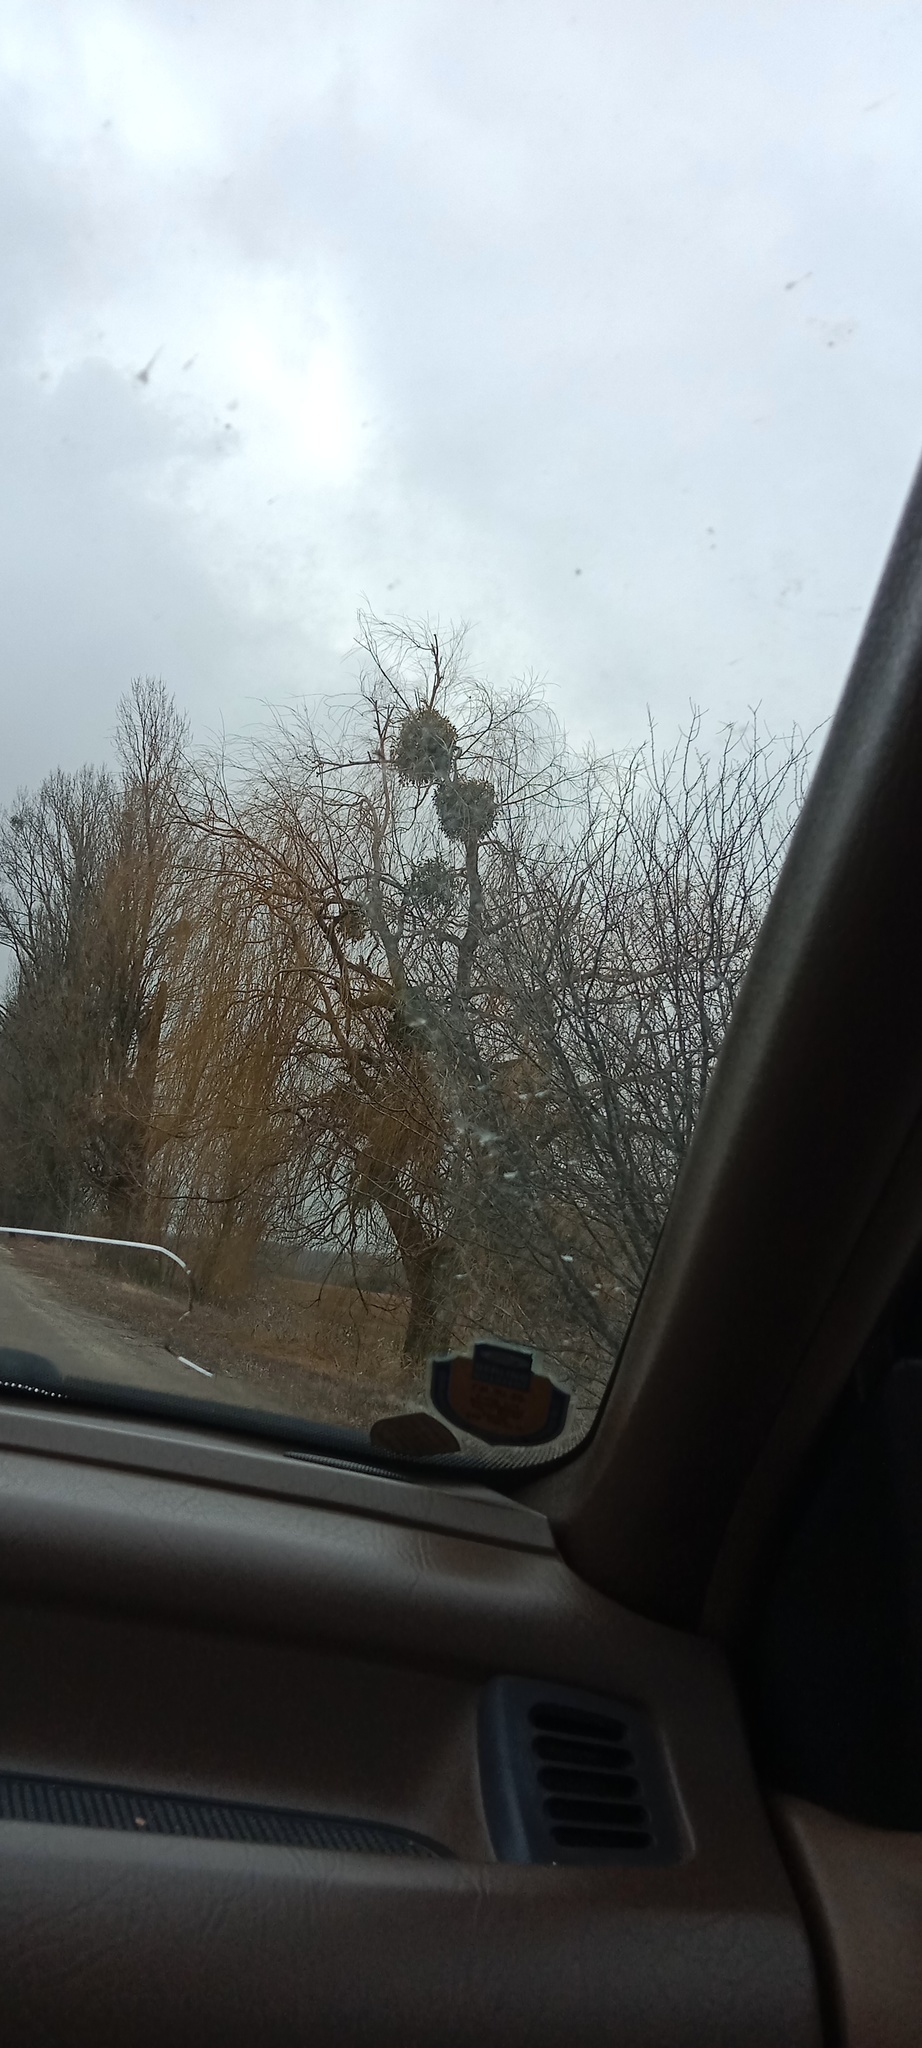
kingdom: Plantae
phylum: Tracheophyta
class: Magnoliopsida
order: Santalales
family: Viscaceae
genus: Viscum
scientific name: Viscum album
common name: Mistletoe
